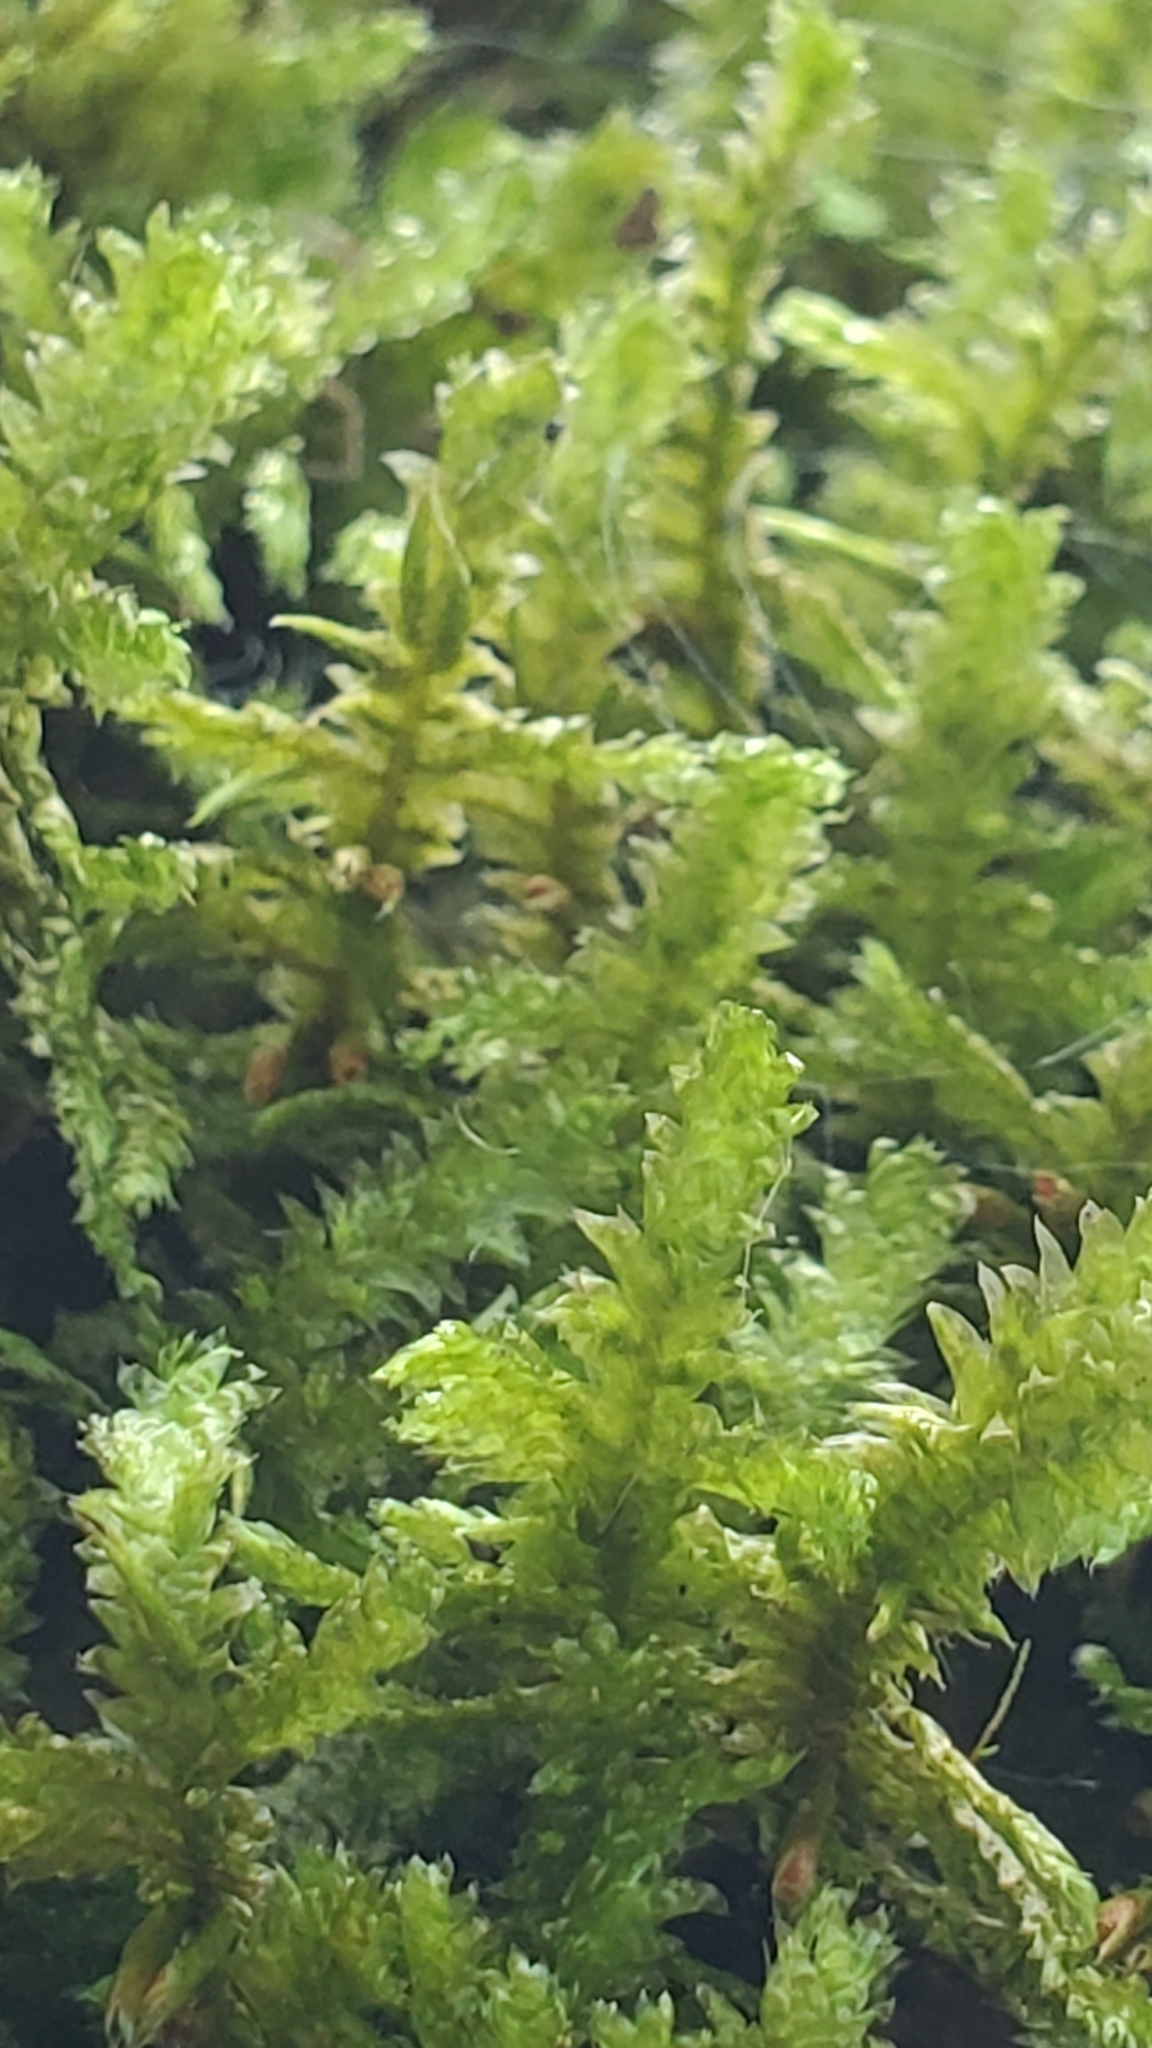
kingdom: Plantae
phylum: Bryophyta
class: Bryopsida
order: Hypnales
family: Neckeraceae
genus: Neckera
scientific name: Neckera pennata
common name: Feathery neckera
